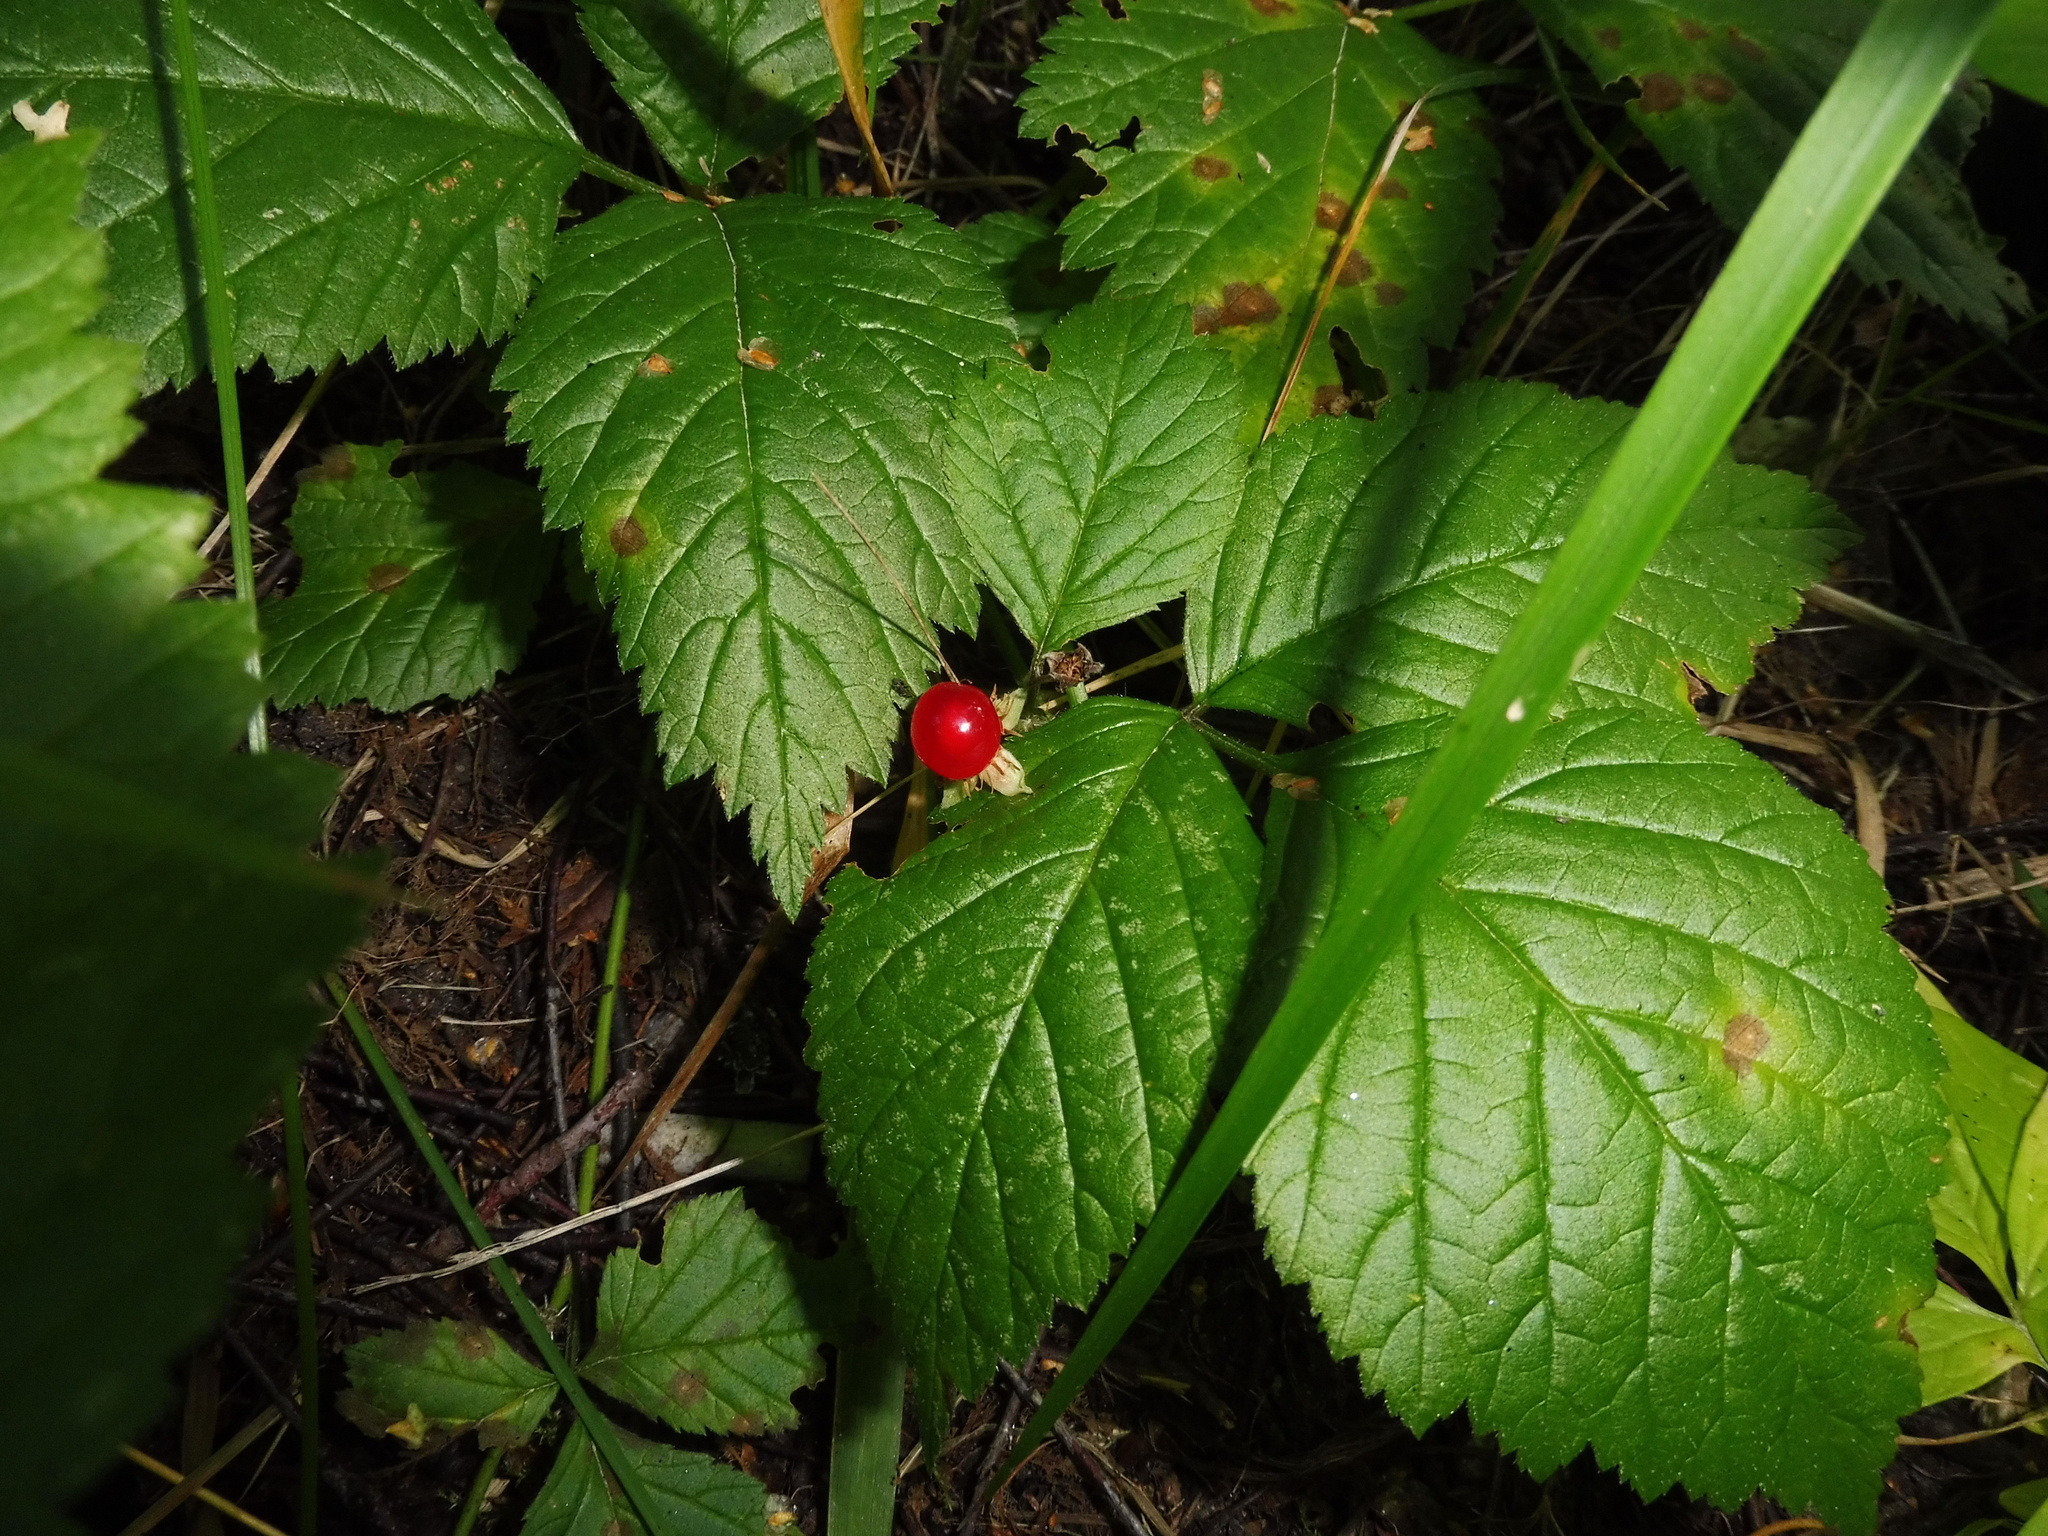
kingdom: Plantae
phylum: Tracheophyta
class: Magnoliopsida
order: Rosales
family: Rosaceae
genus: Rubus
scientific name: Rubus saxatilis
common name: Stone bramble
